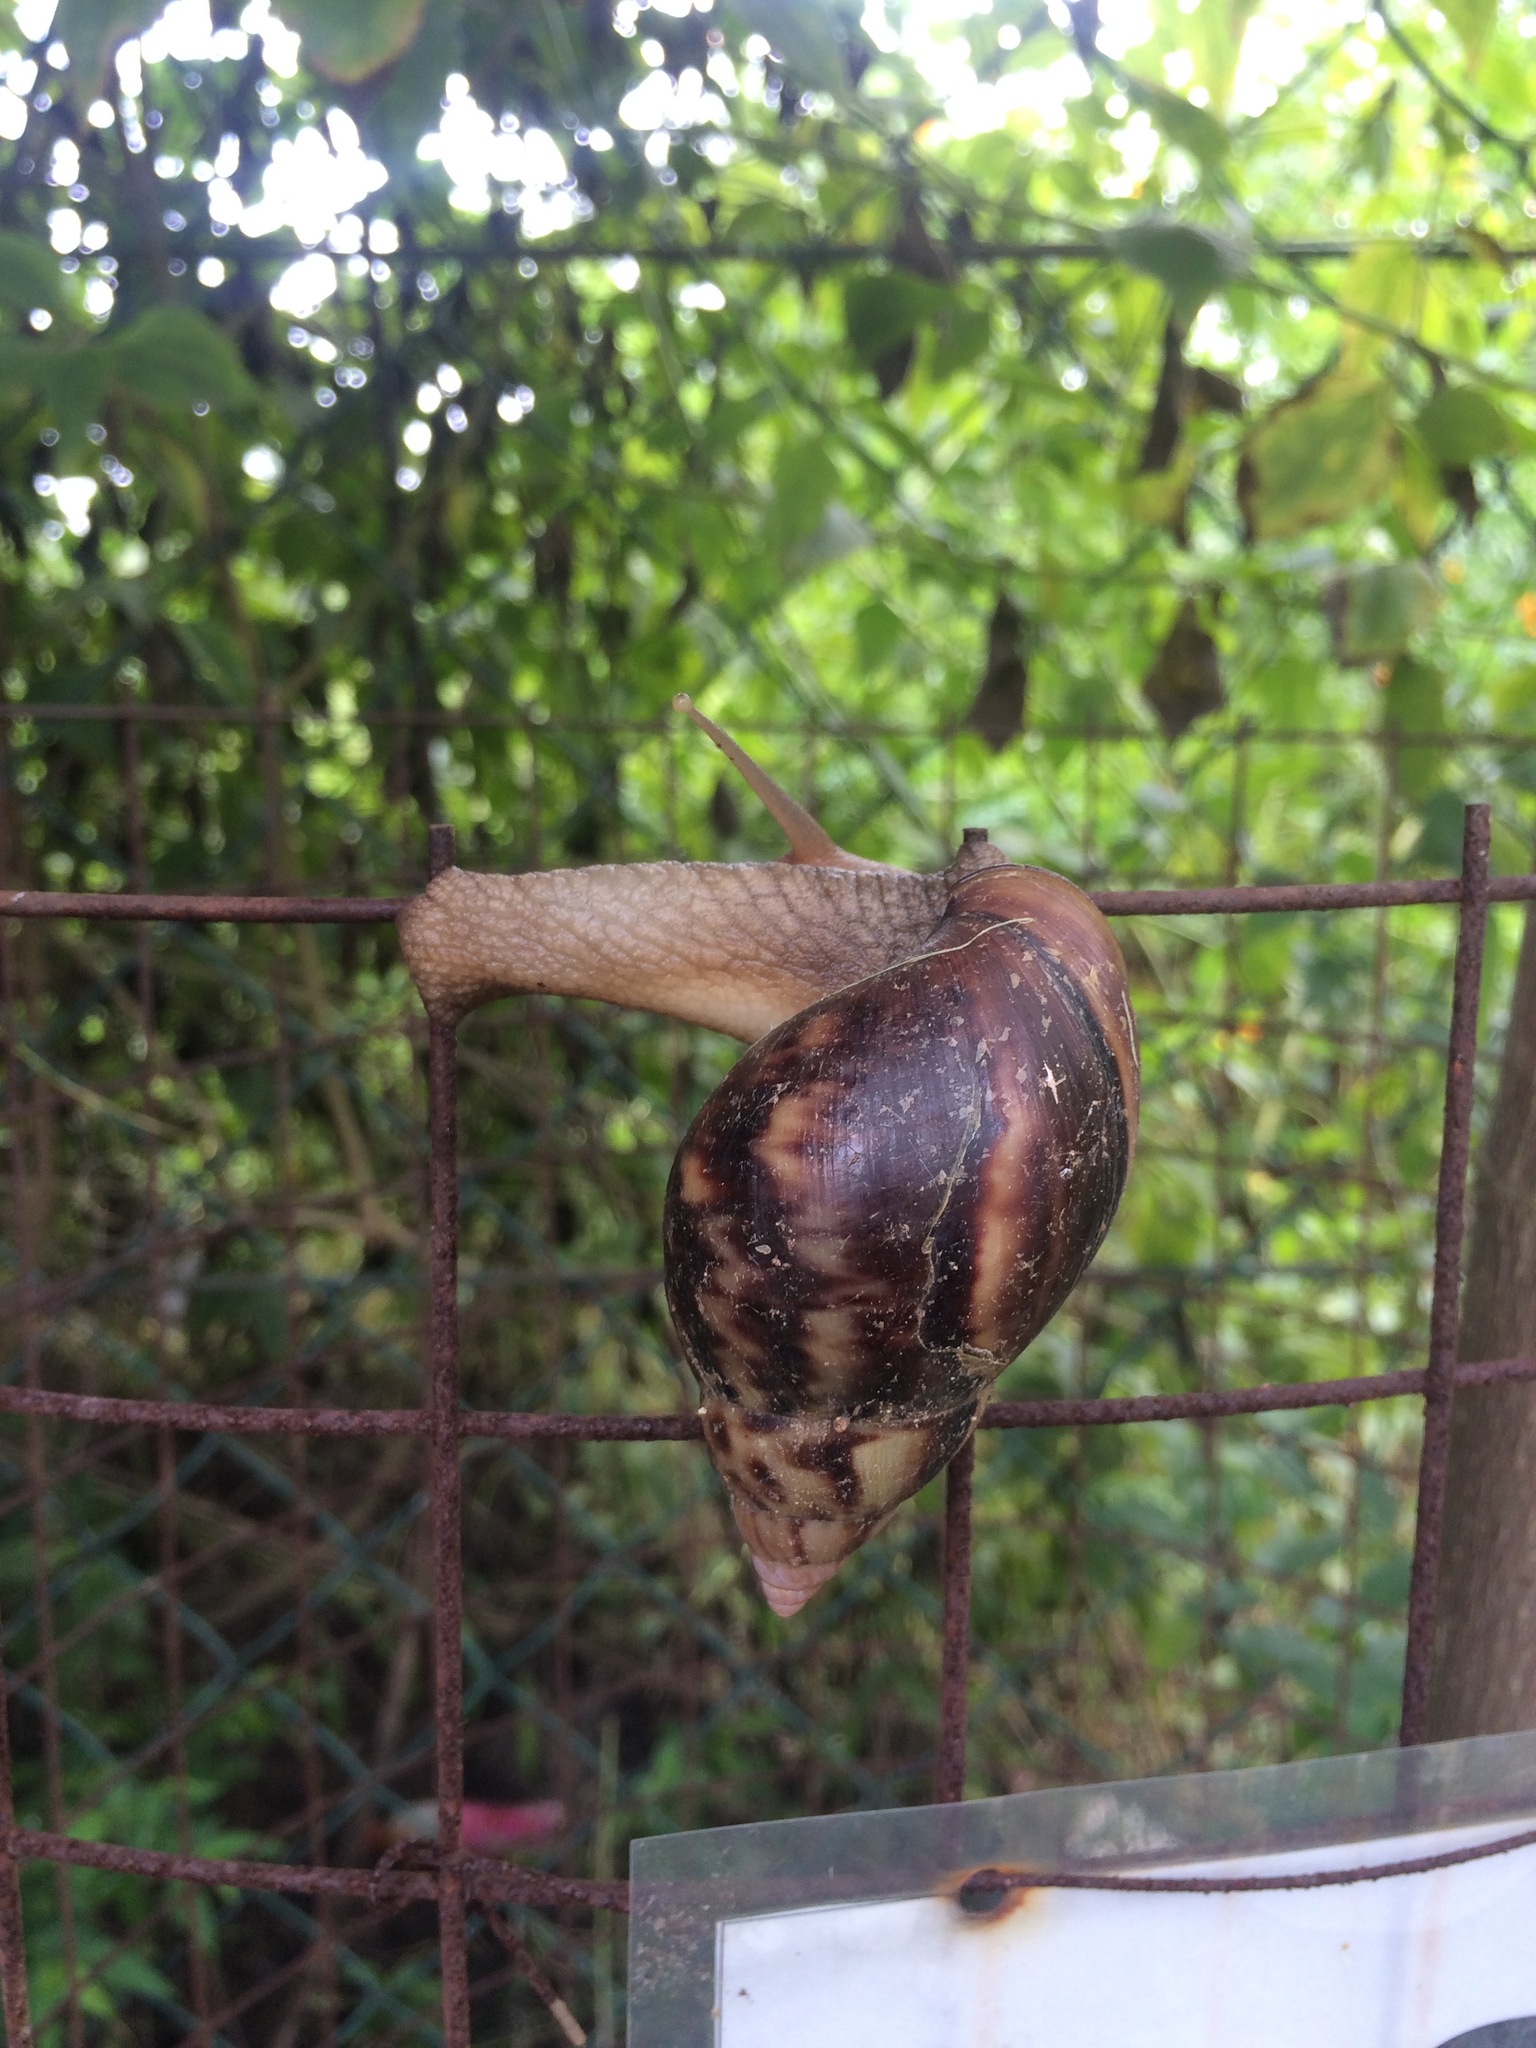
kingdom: Animalia
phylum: Mollusca
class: Gastropoda
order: Stylommatophora
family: Achatinidae
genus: Lissachatina
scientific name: Lissachatina fulica
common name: Giant african snail
